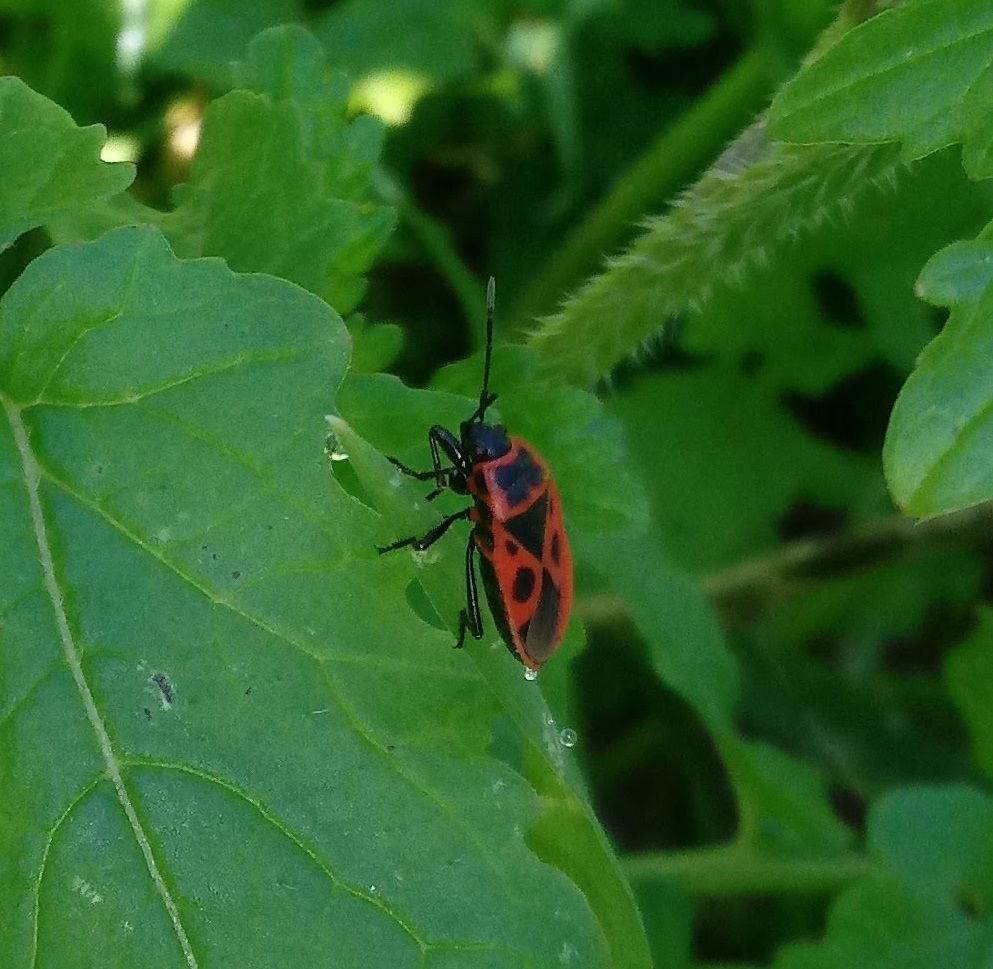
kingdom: Animalia
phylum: Arthropoda
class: Insecta
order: Hemiptera
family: Pyrrhocoridae
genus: Pyrrhocoris
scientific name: Pyrrhocoris apterus
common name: Firebug
